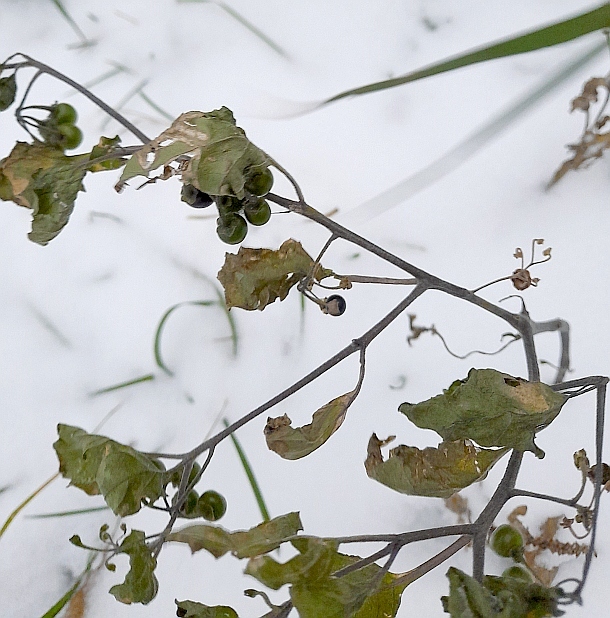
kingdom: Plantae
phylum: Tracheophyta
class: Magnoliopsida
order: Solanales
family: Solanaceae
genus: Solanum
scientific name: Solanum nigrum
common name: Black nightshade
